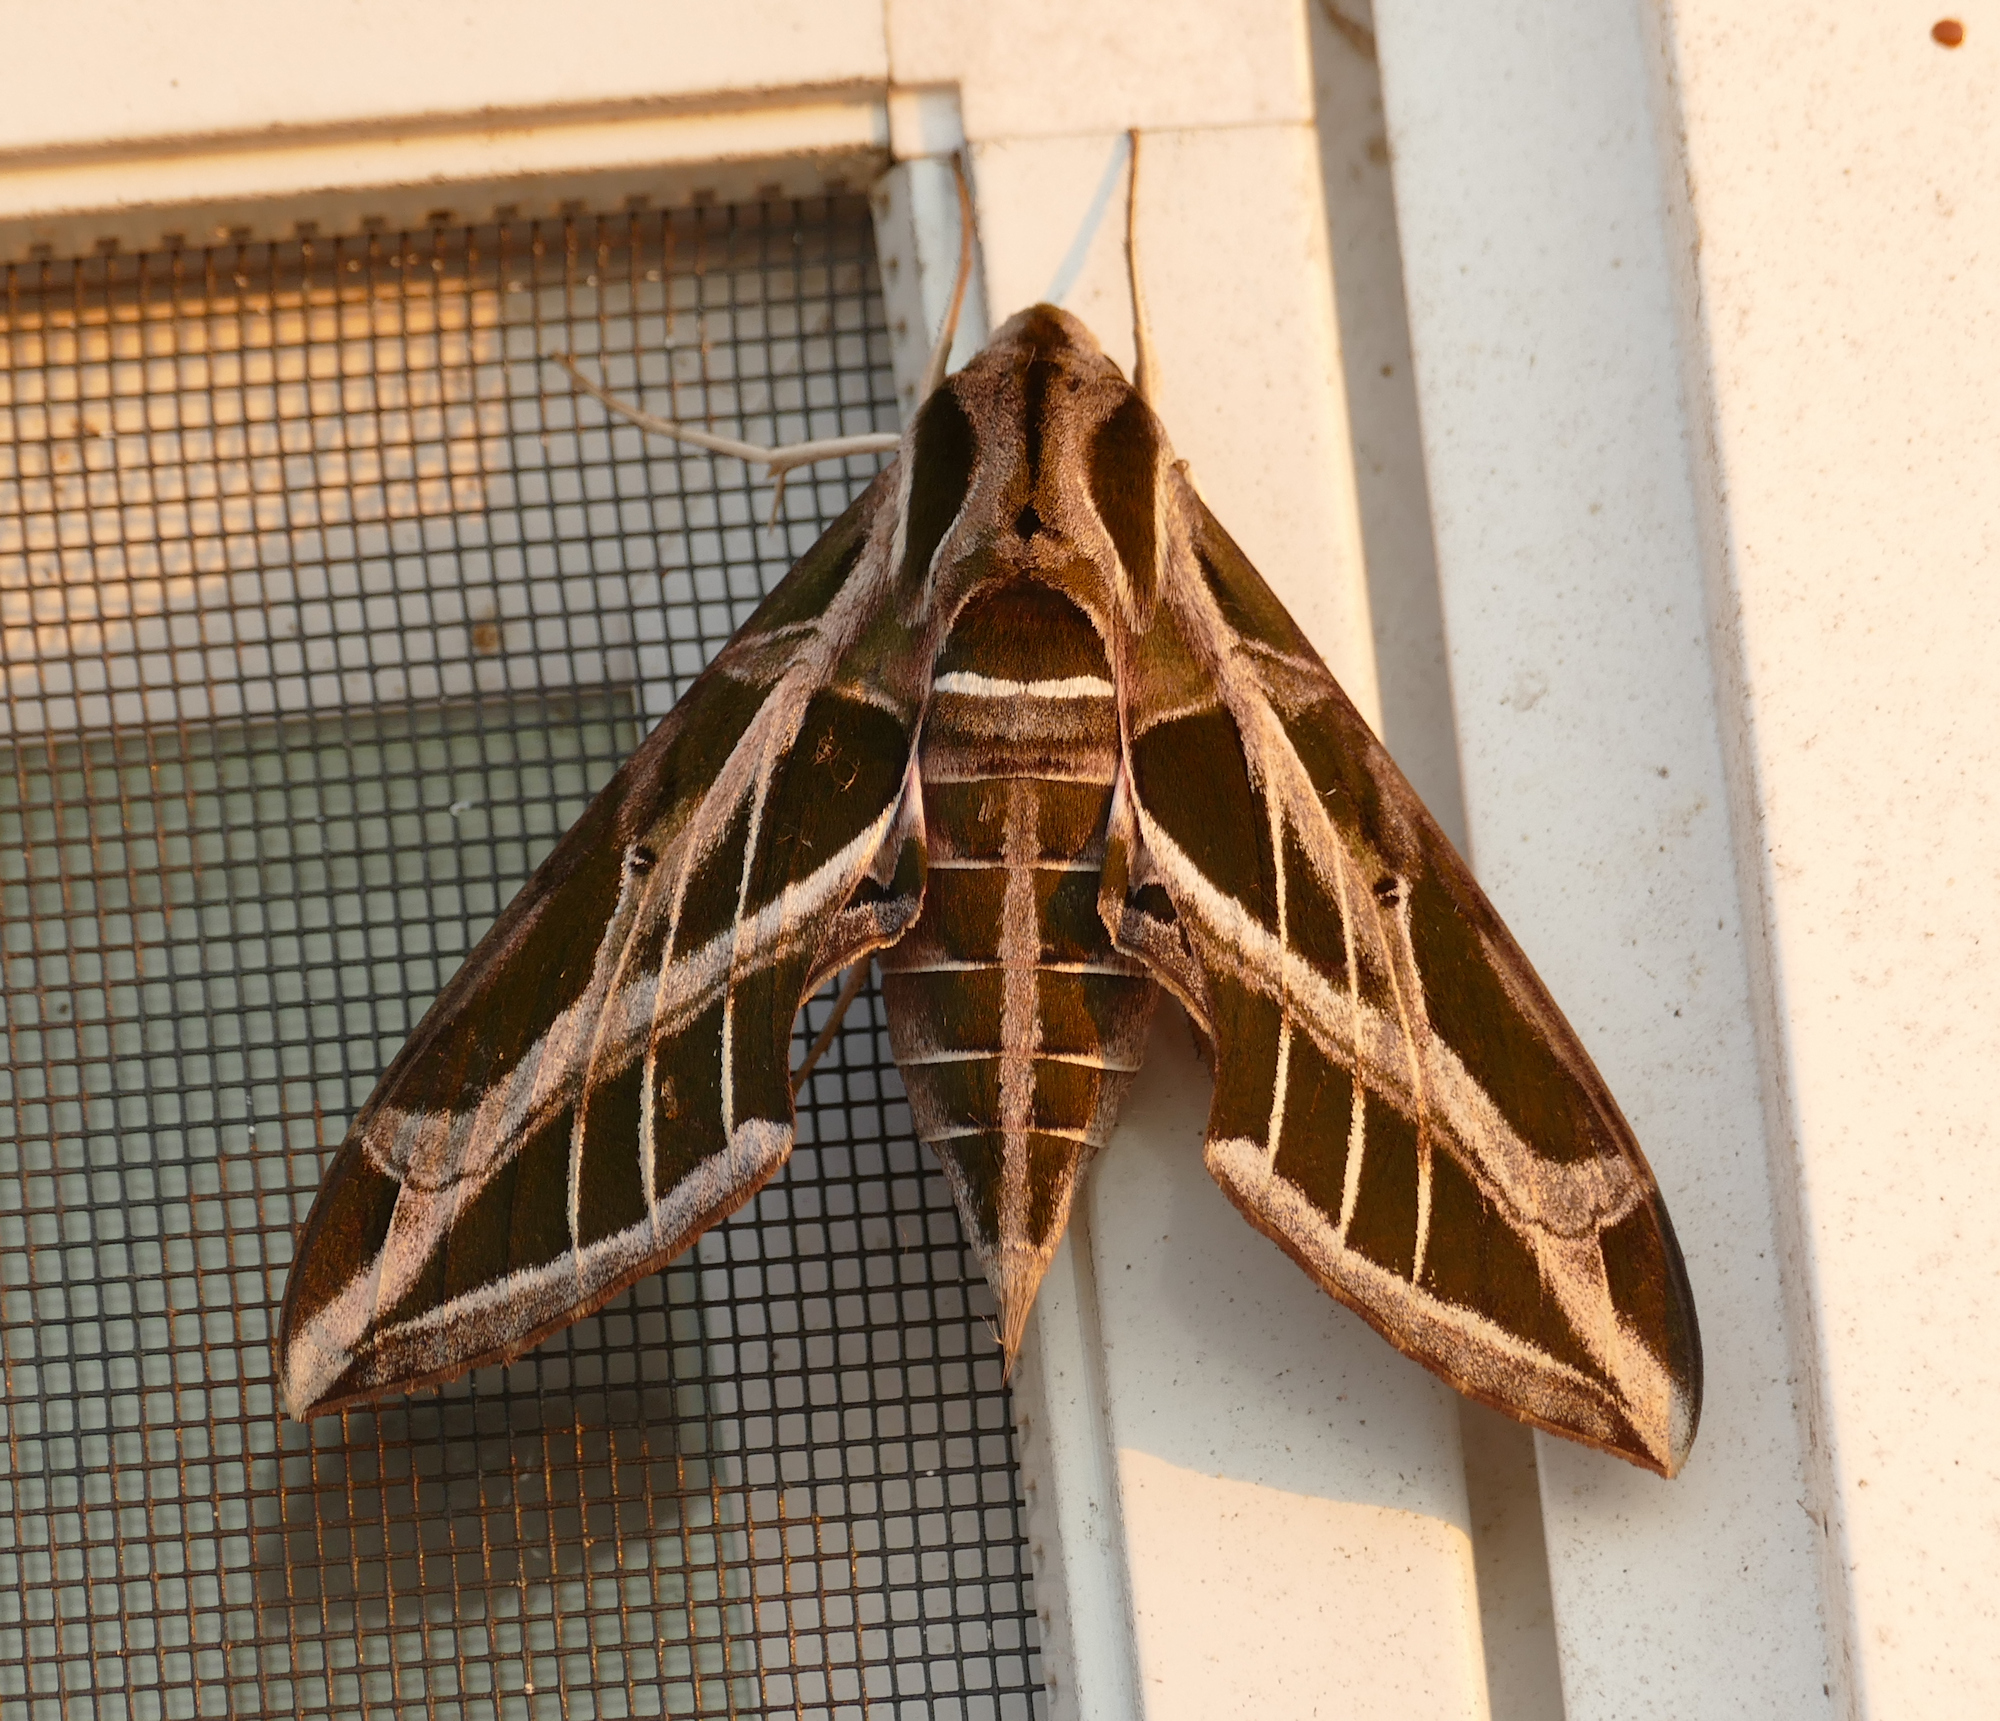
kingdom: Animalia
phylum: Arthropoda
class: Insecta
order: Lepidoptera
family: Sphingidae
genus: Eumorpha
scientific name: Eumorpha vitis
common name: Vine sphinx
